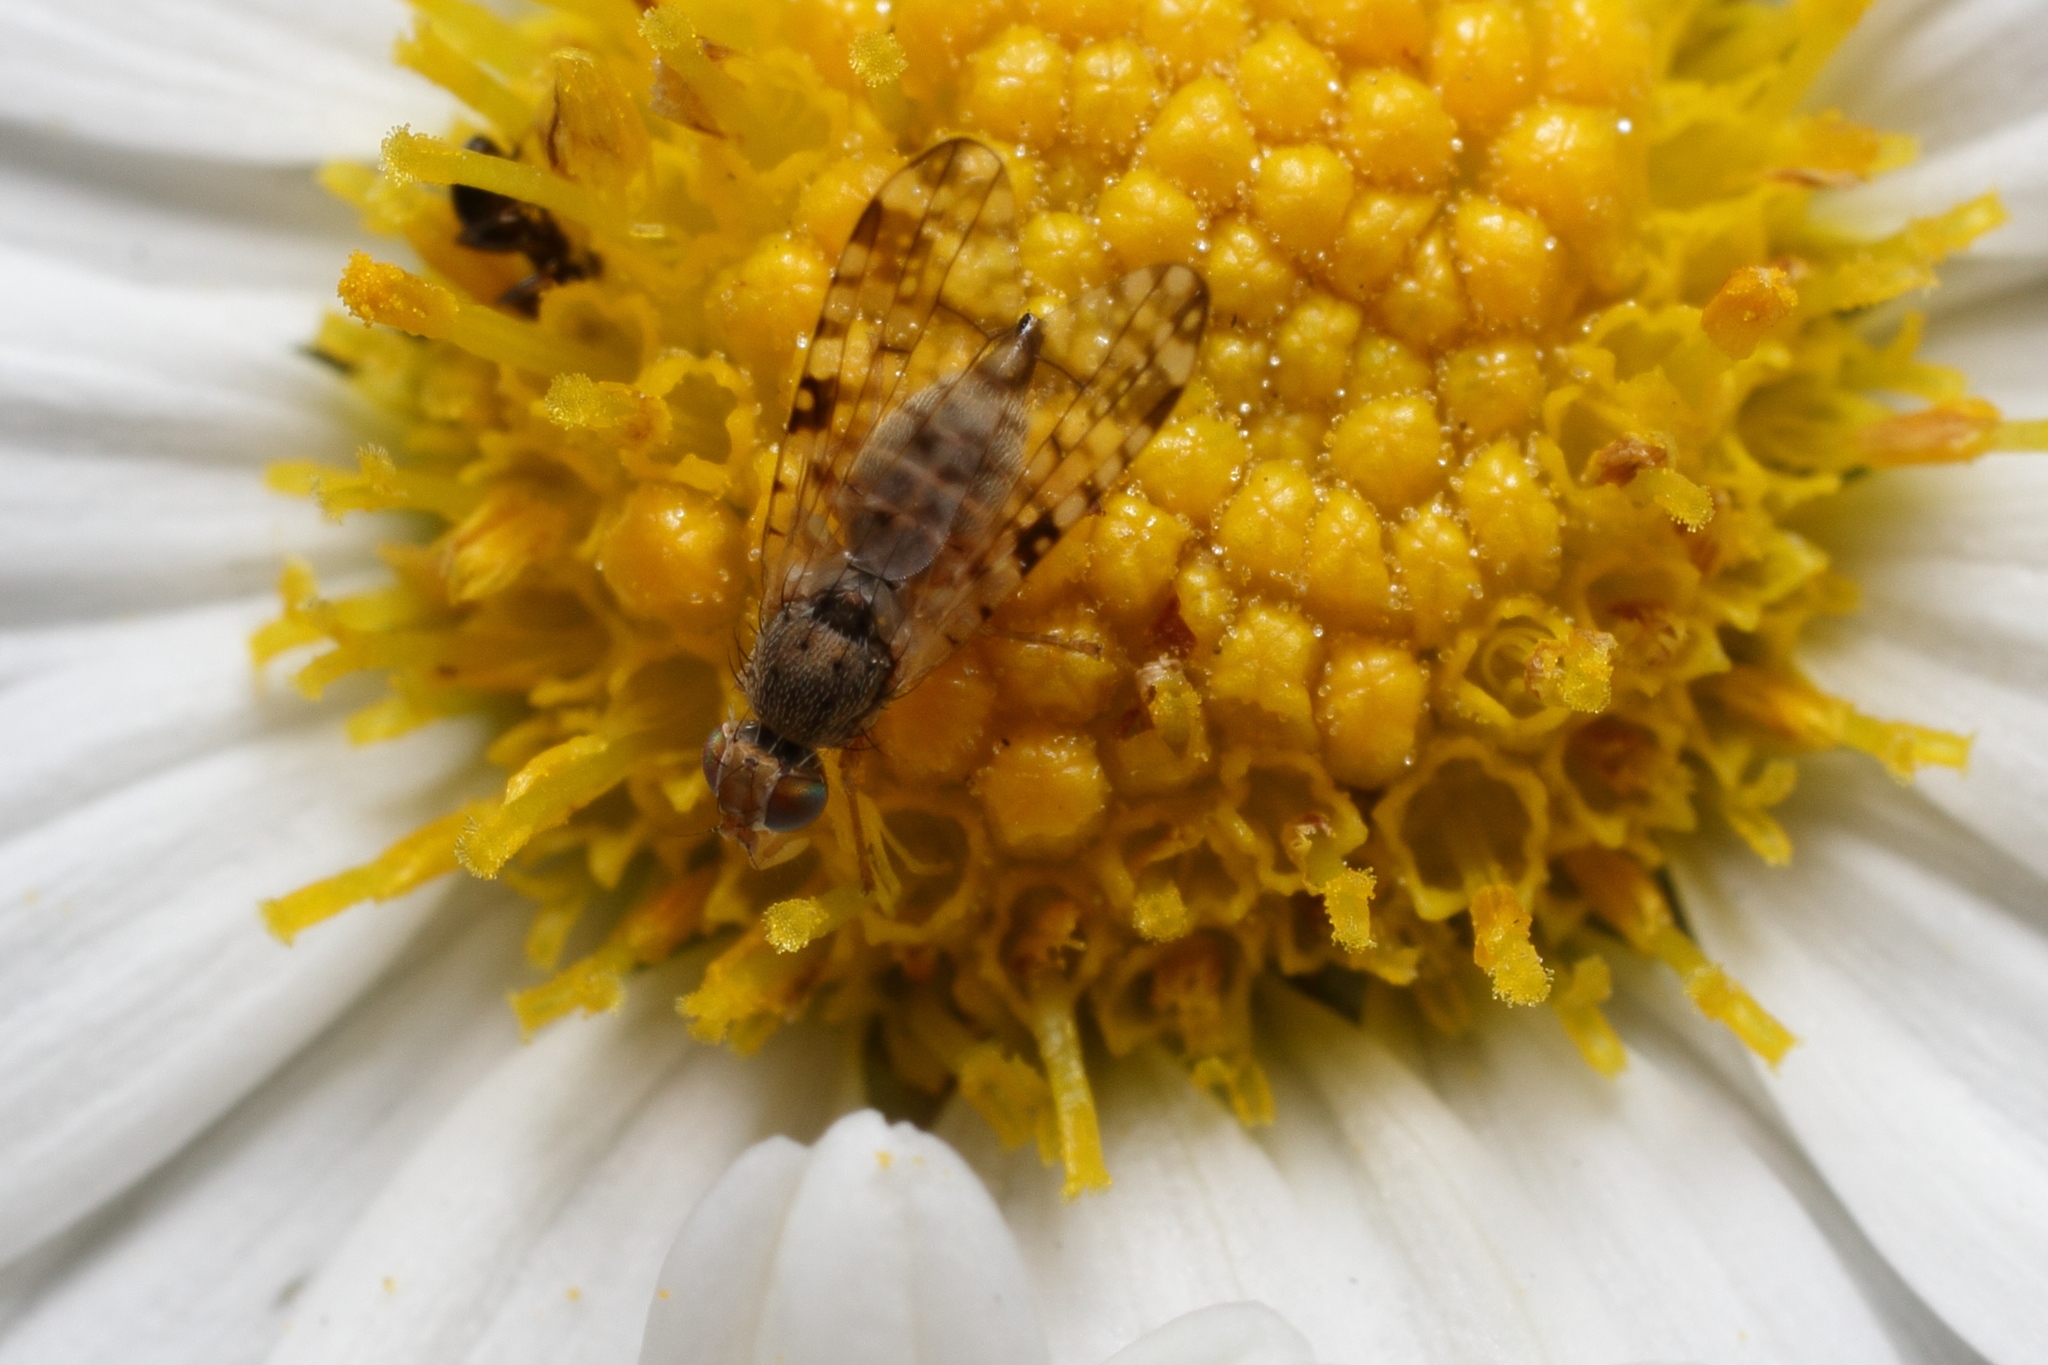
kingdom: Animalia
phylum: Arthropoda
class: Insecta
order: Diptera
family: Tephritidae
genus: Dioxyna
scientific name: Dioxyna bidentis
